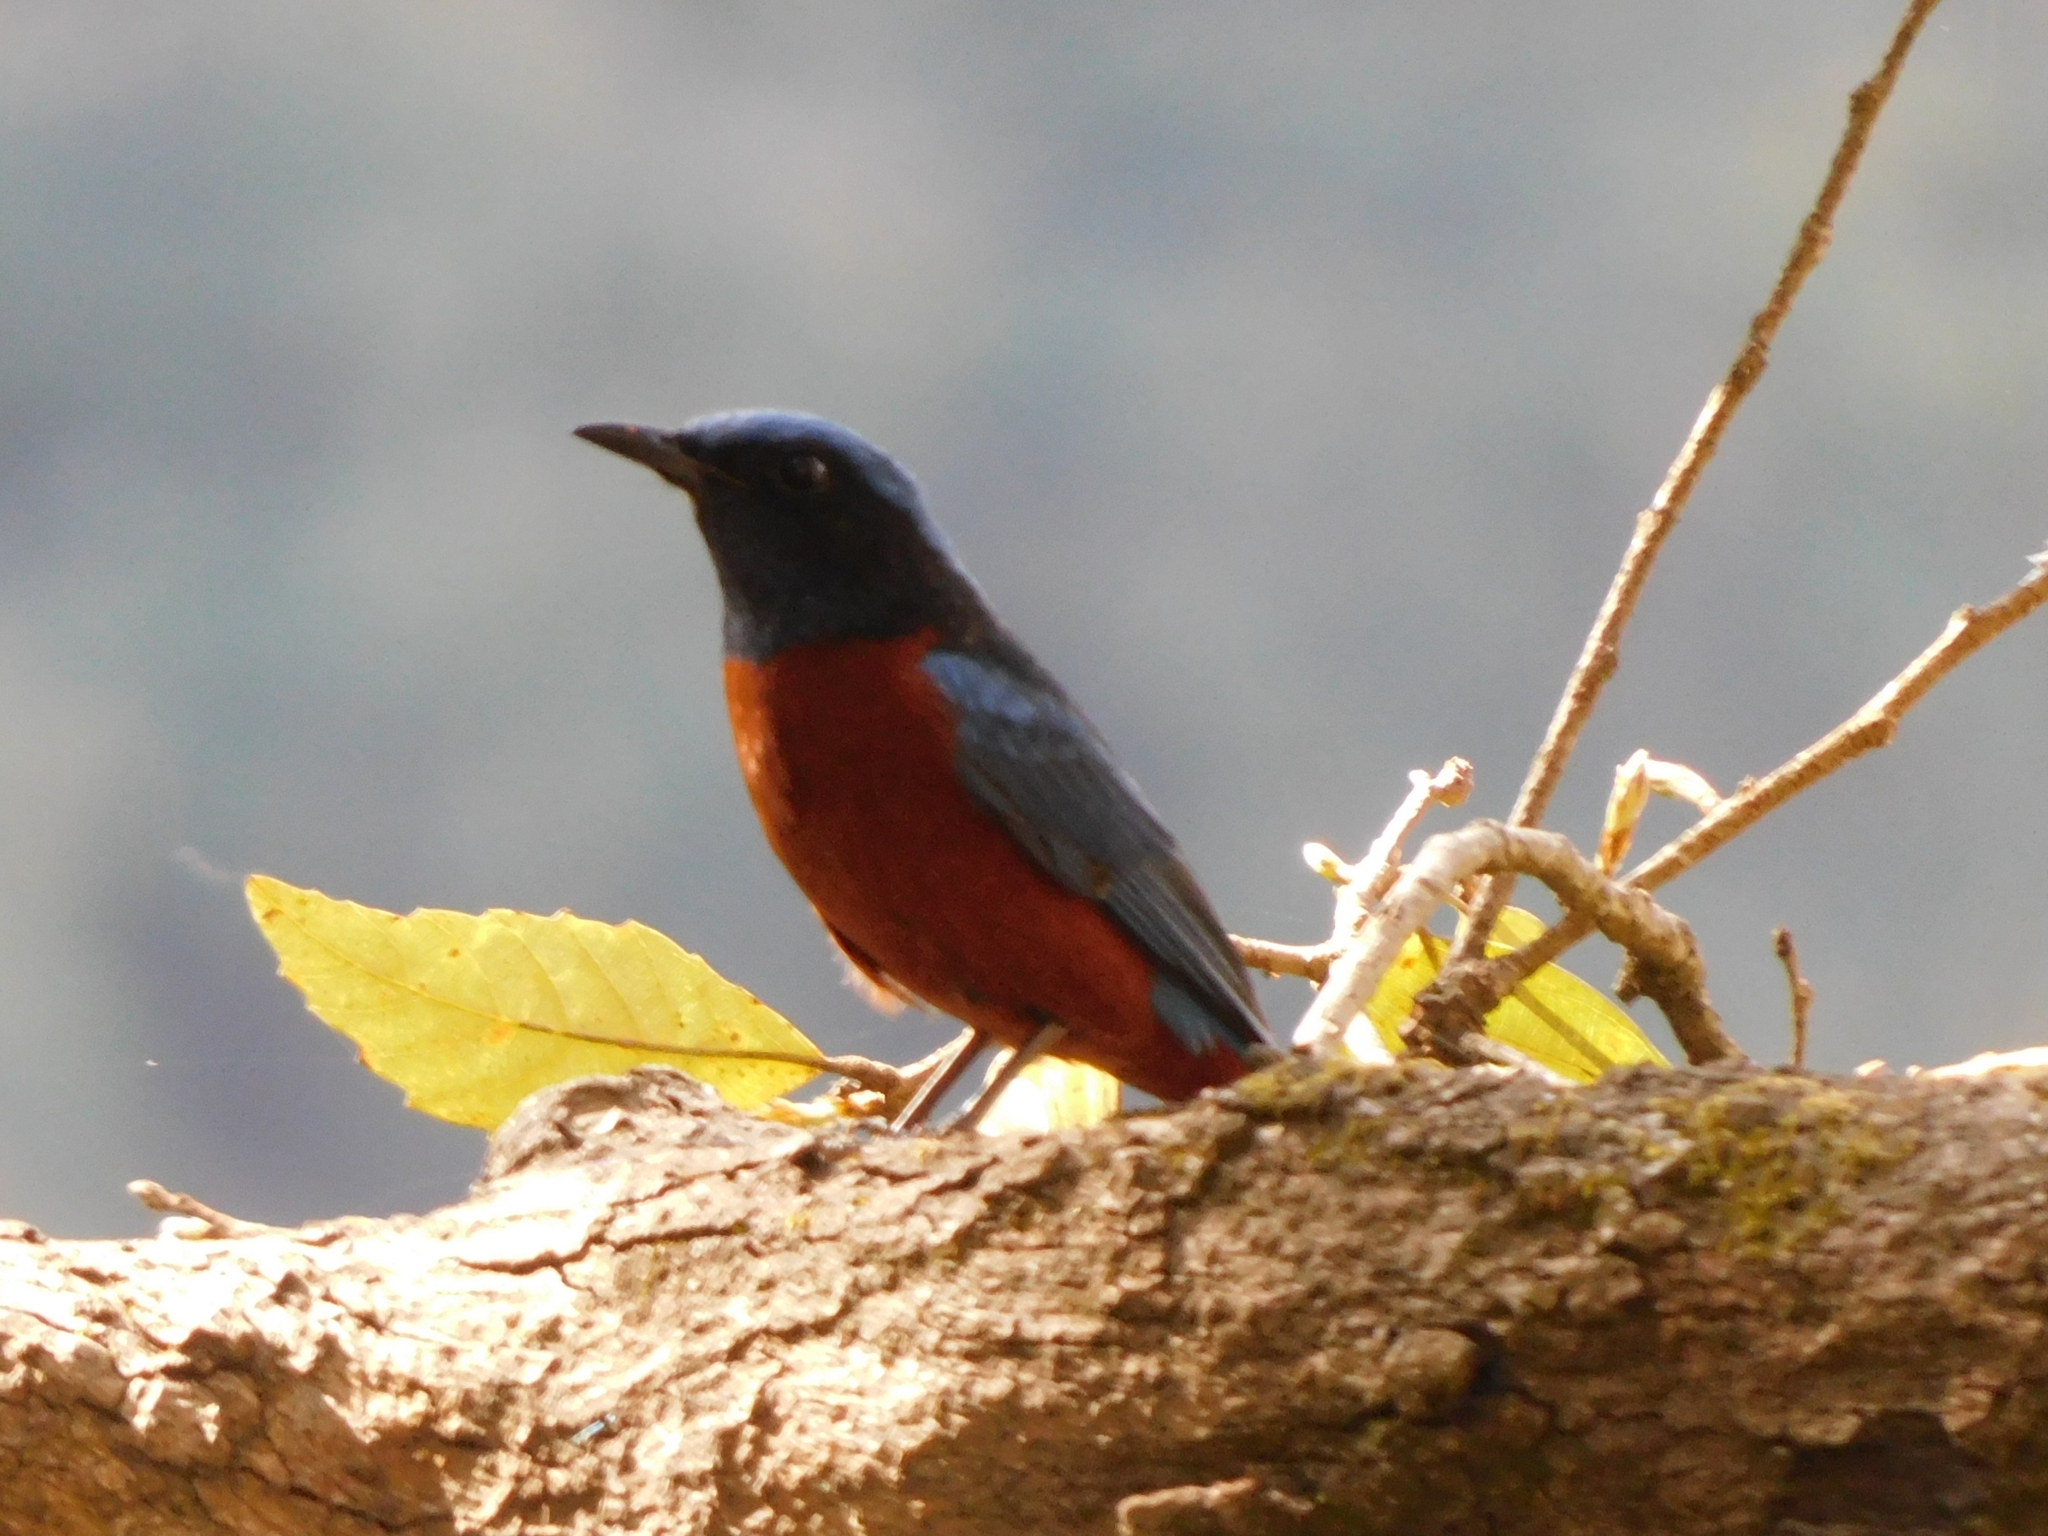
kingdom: Animalia
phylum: Chordata
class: Aves
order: Passeriformes
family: Muscicapidae
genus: Monticola
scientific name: Monticola rufiventris
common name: Chestnut-bellied rock thrush
